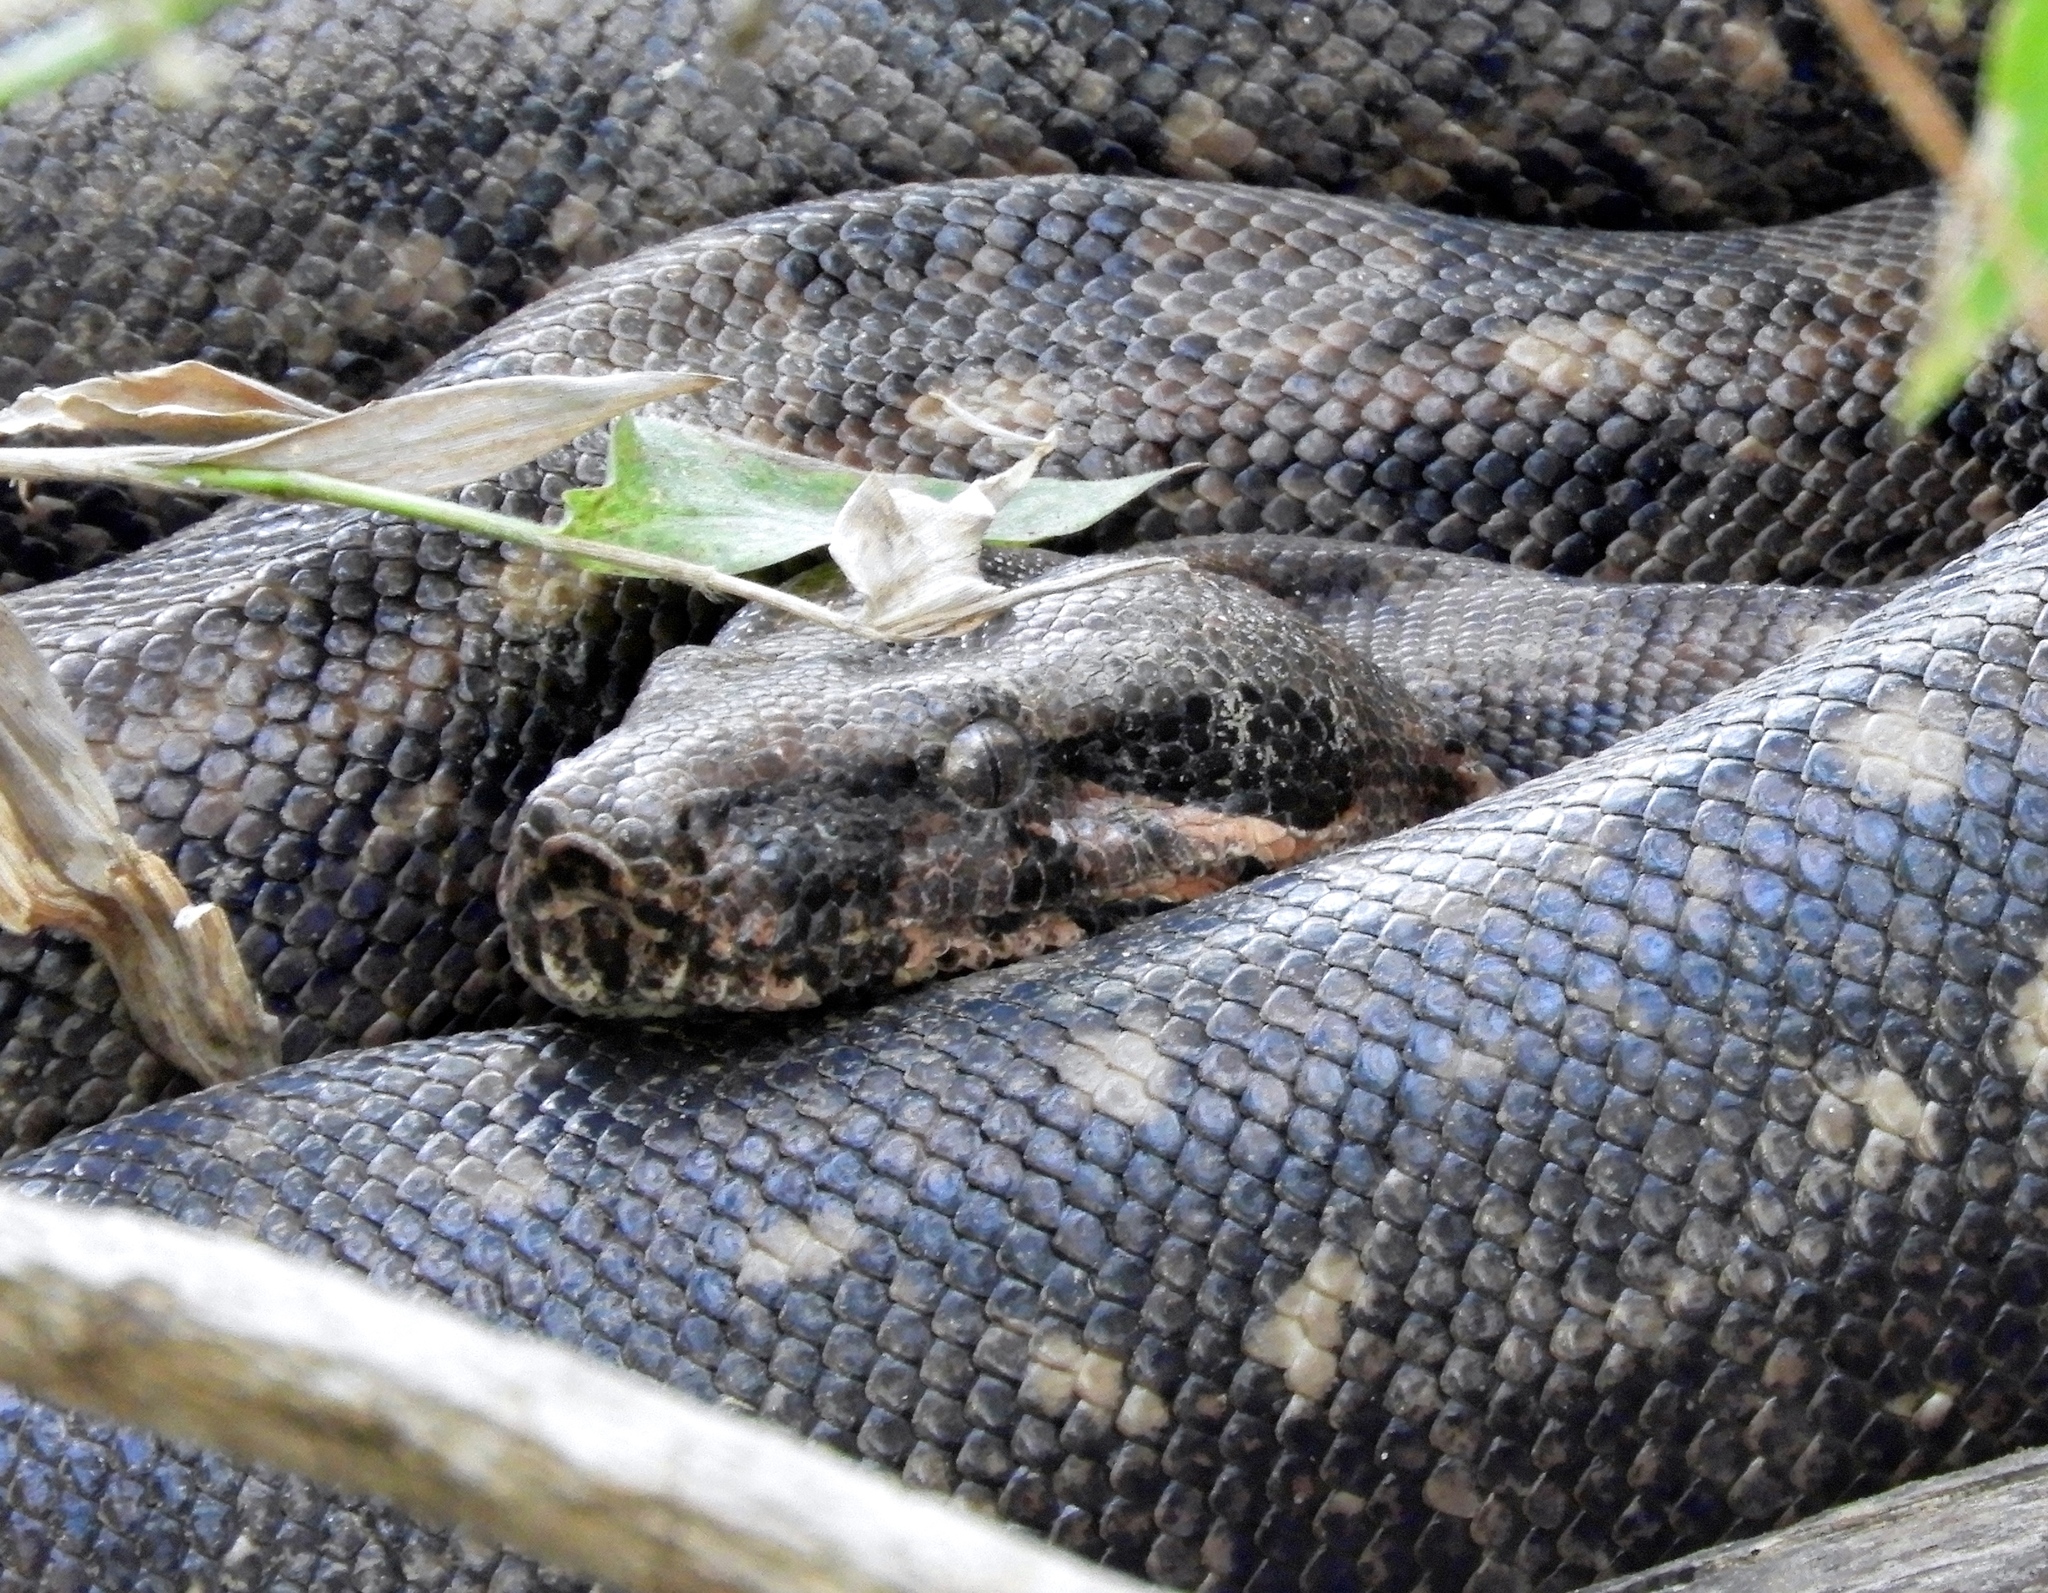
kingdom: Animalia
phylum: Chordata
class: Squamata
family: Boidae
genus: Boa
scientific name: Boa
